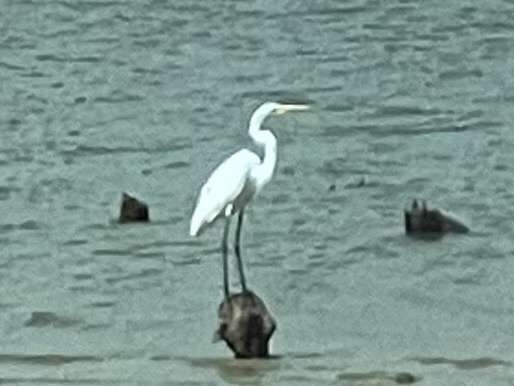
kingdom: Animalia
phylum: Chordata
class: Aves
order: Pelecaniformes
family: Ardeidae
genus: Ardea
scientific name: Ardea alba
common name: Great egret
